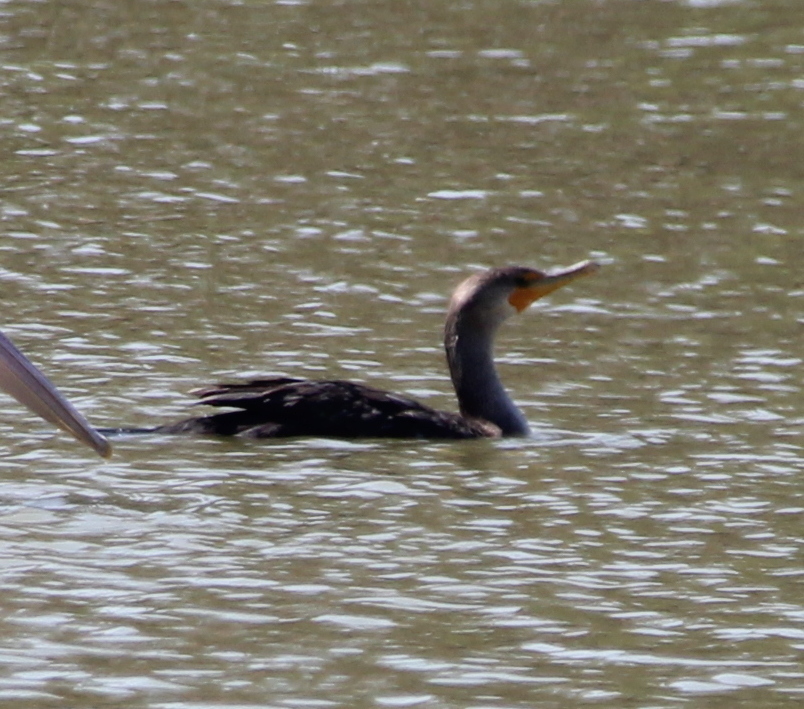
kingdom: Animalia
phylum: Chordata
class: Aves
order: Suliformes
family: Phalacrocoracidae
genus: Phalacrocorax
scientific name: Phalacrocorax auritus
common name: Double-crested cormorant
